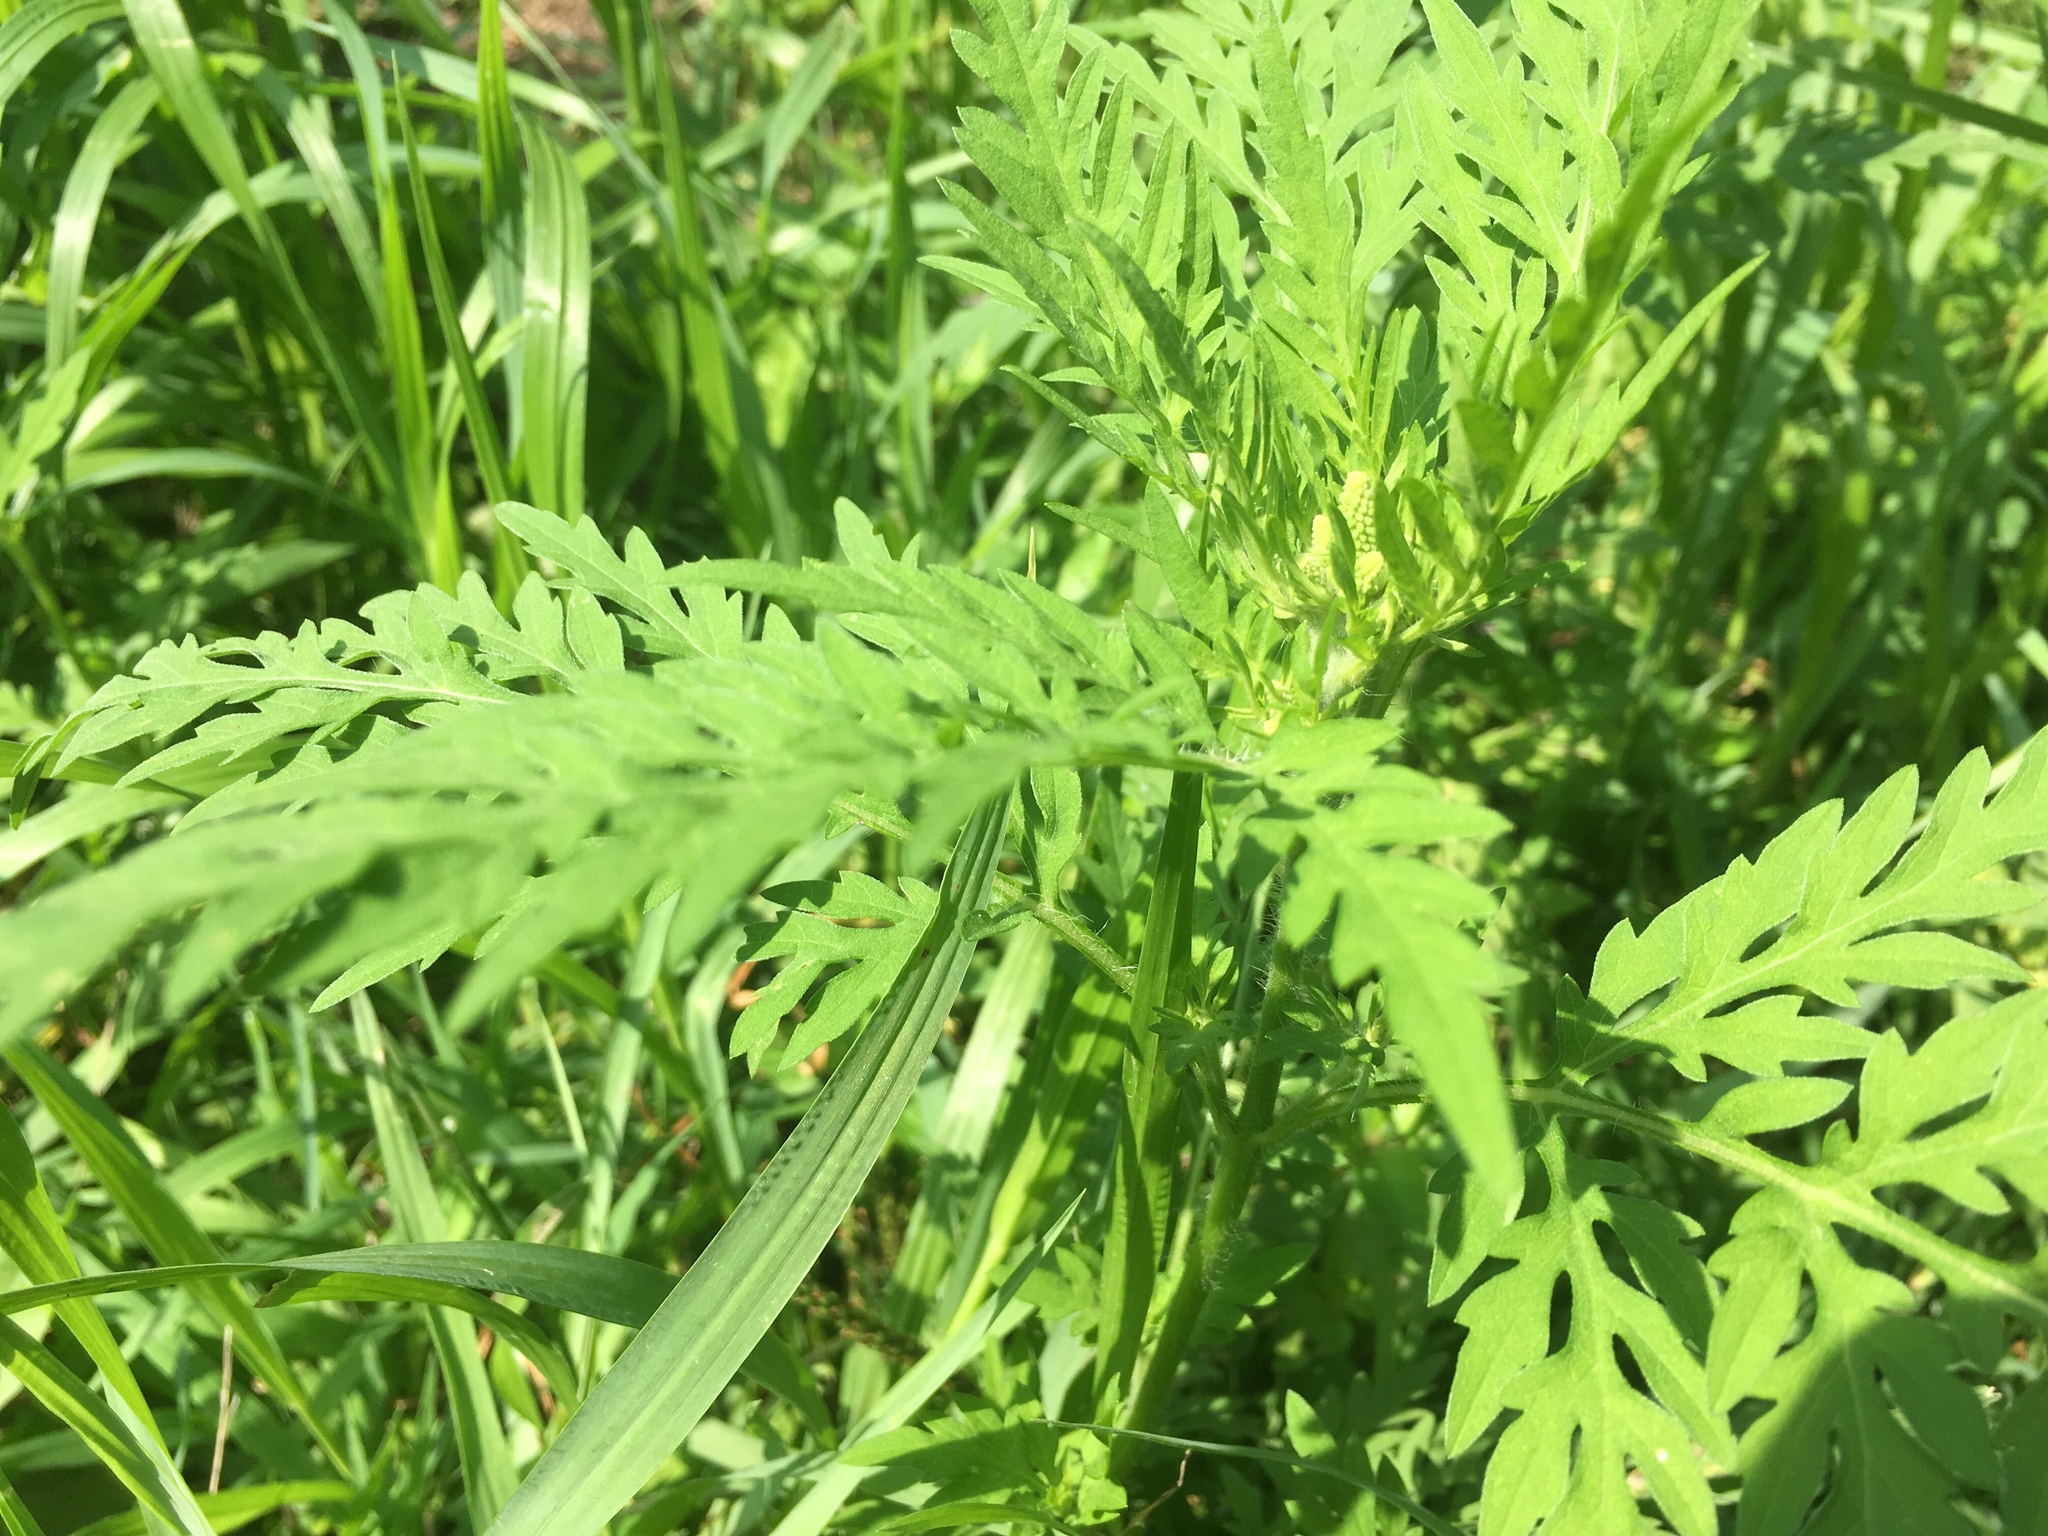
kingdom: Plantae
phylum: Tracheophyta
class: Magnoliopsida
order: Asterales
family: Asteraceae
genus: Ambrosia
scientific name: Ambrosia artemisiifolia
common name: Annual ragweed
